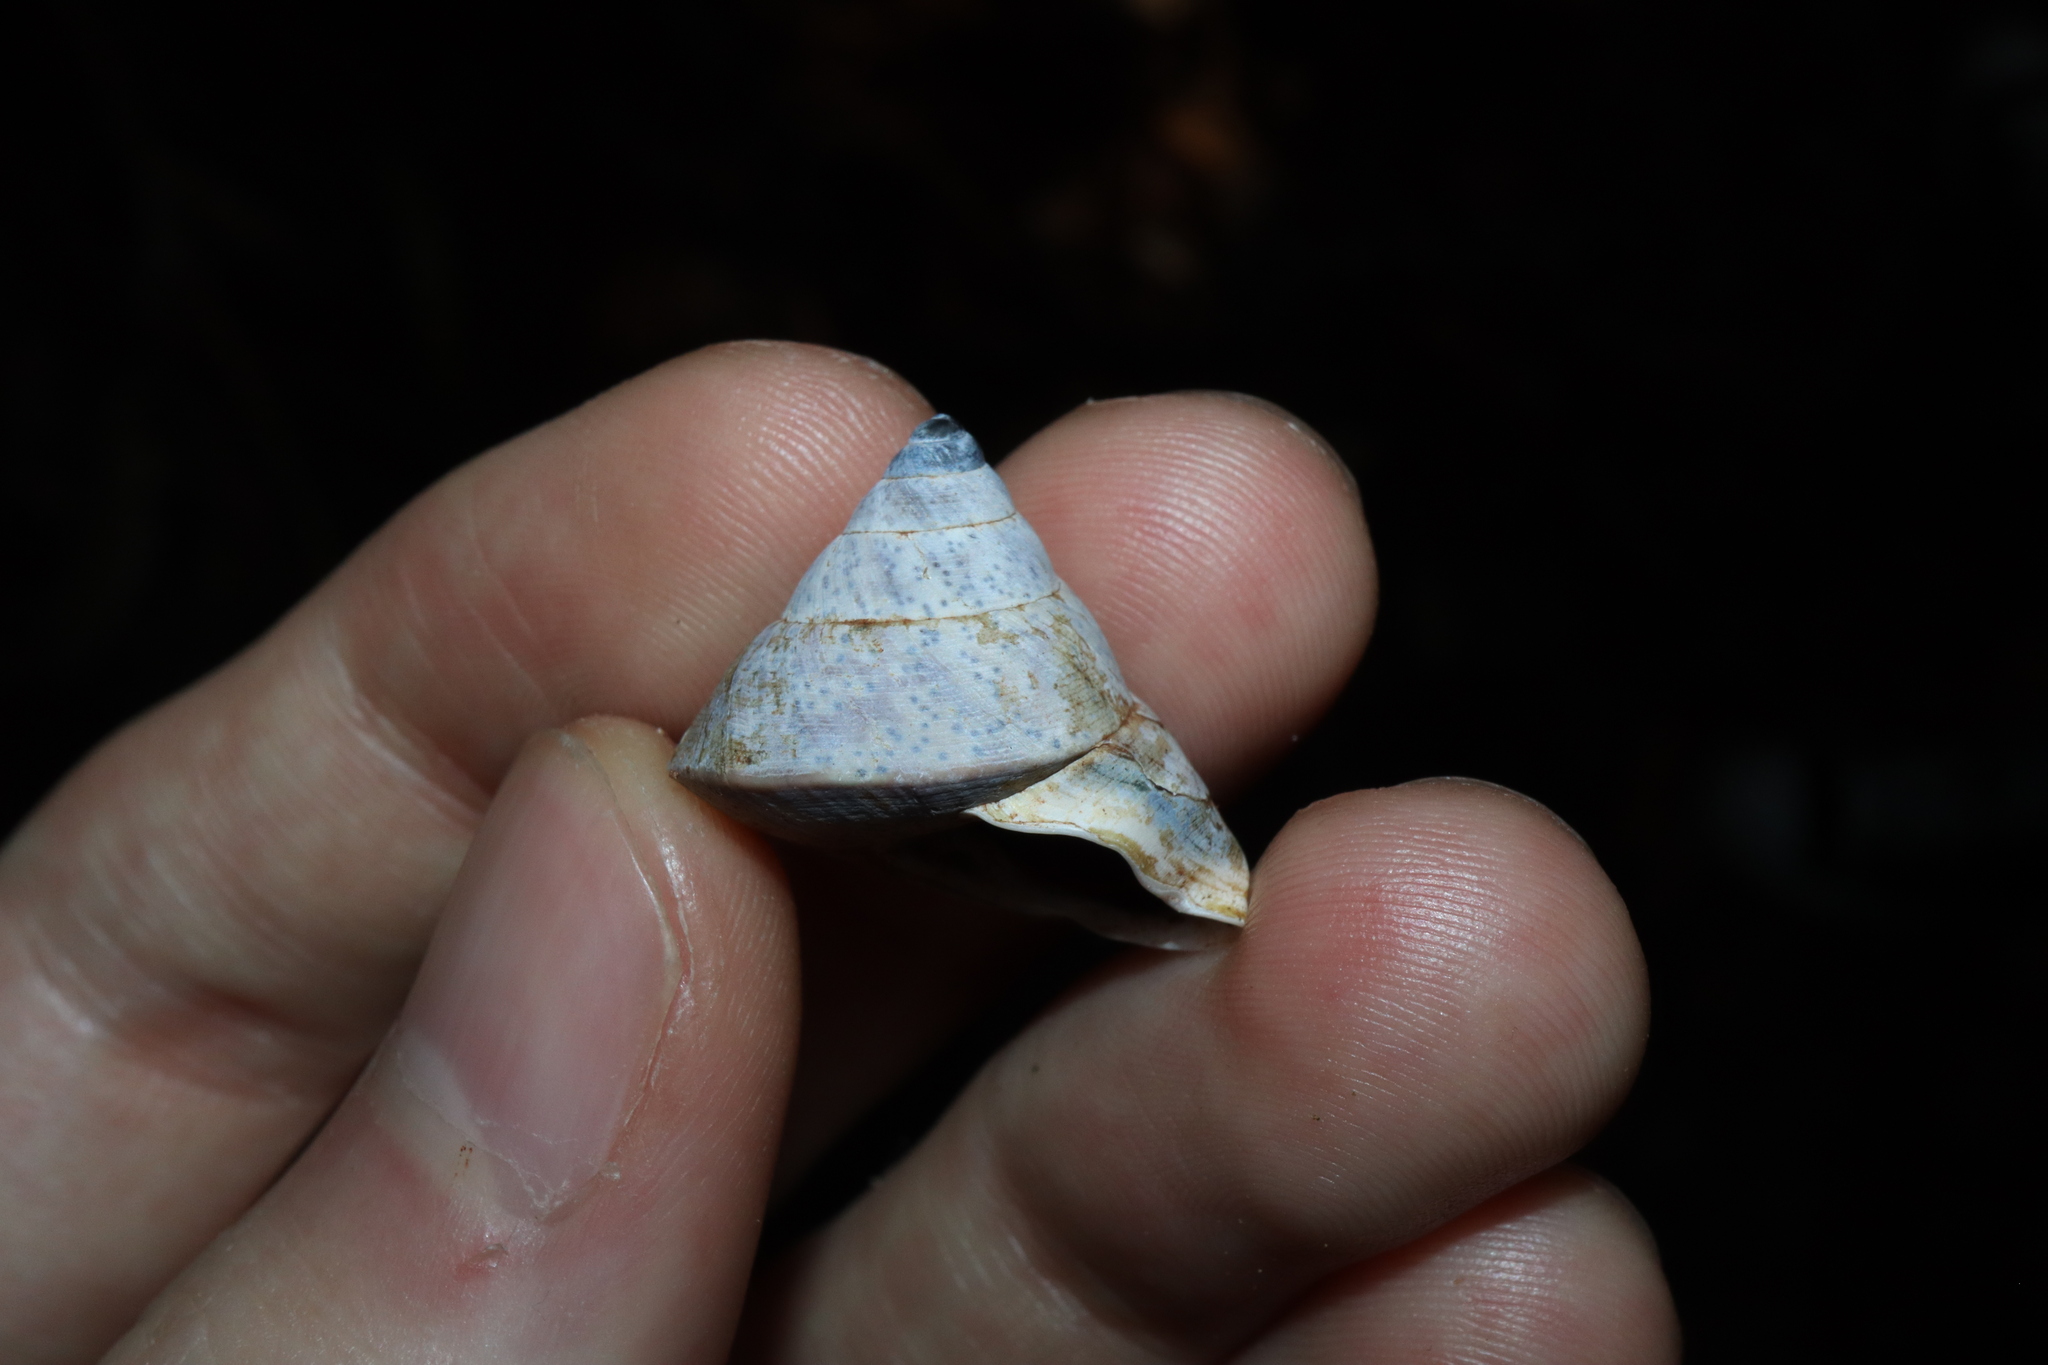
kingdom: Animalia
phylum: Mollusca
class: Gastropoda
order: Stylommatophora
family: Camaenidae
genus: Rhynchotrochus
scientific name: Rhynchotrochus macgillivrayi
